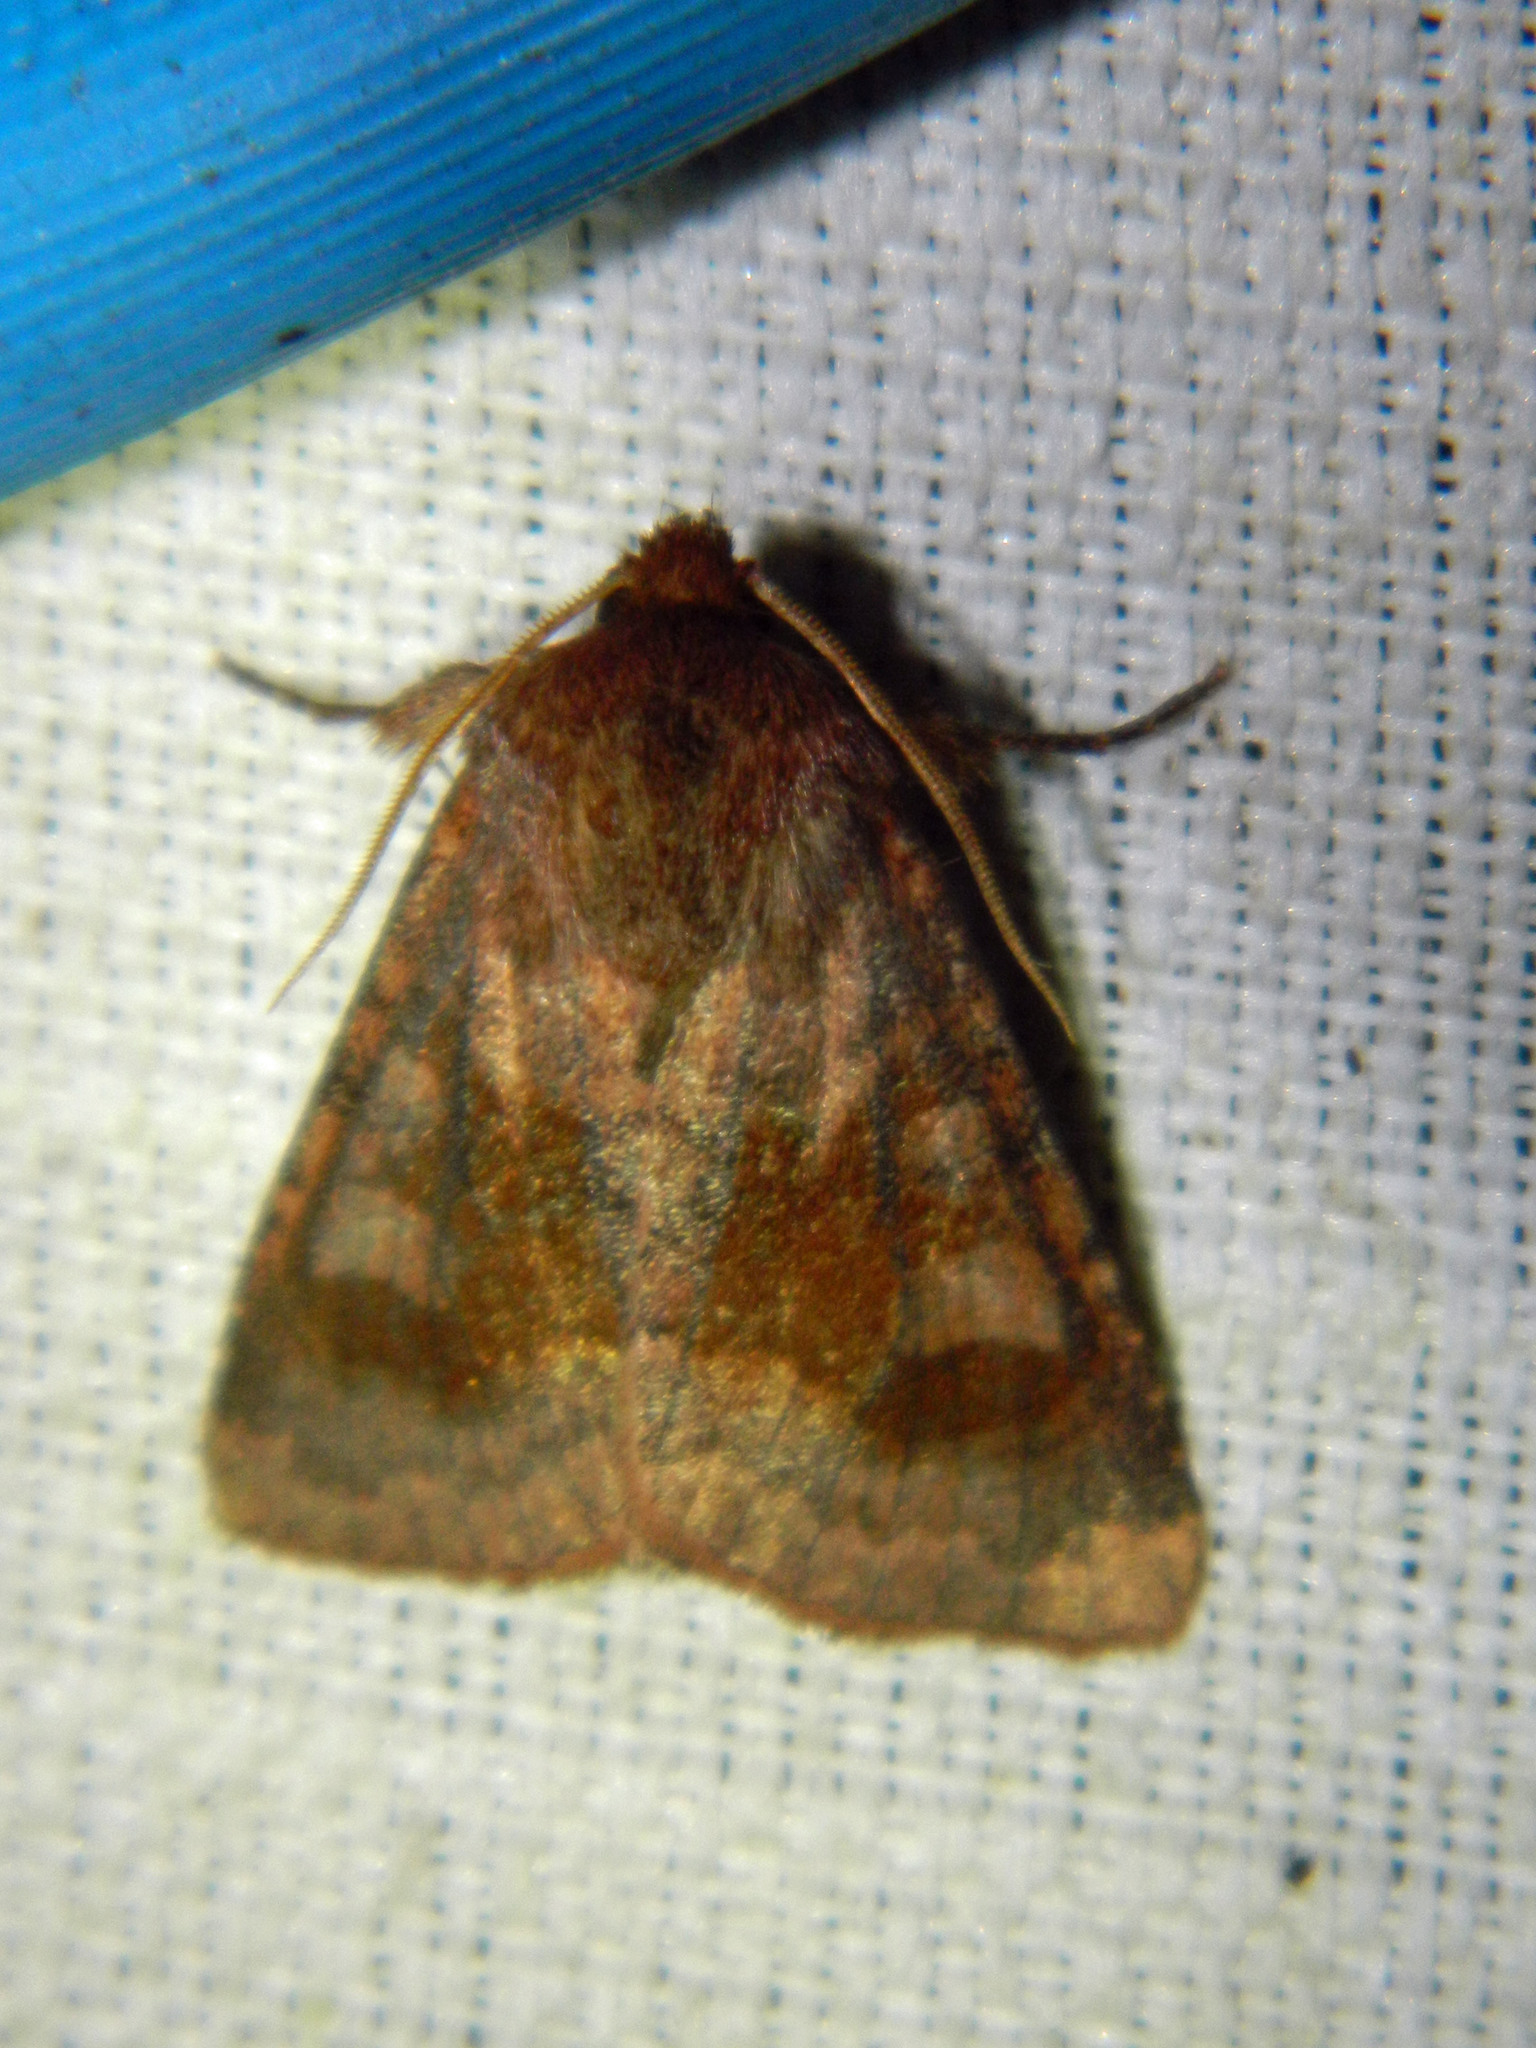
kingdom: Animalia
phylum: Arthropoda
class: Insecta
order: Lepidoptera
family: Noctuidae
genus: Nephelodes
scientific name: Nephelodes minians
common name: Bronzed cutworm
